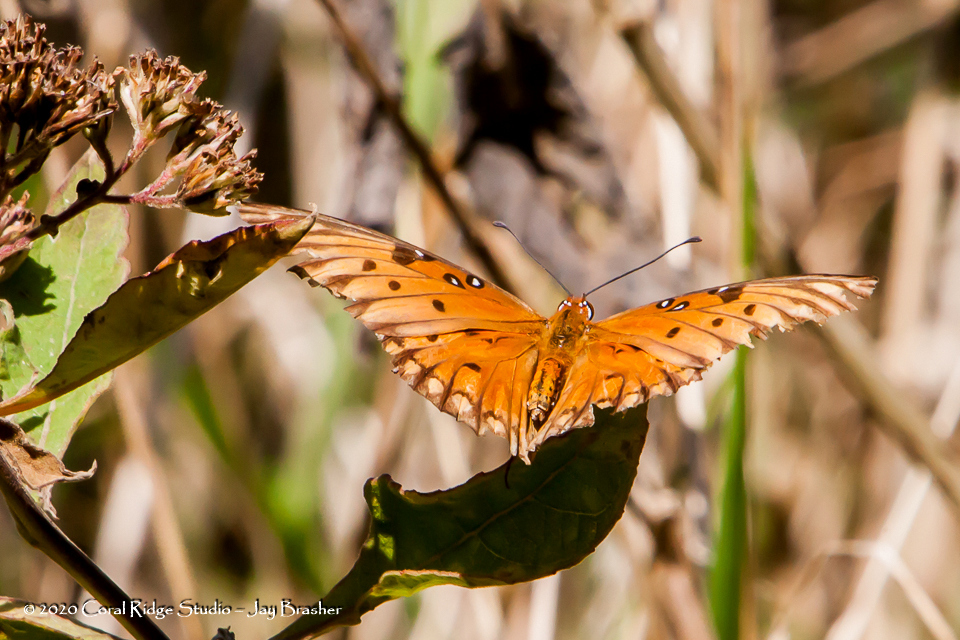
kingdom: Animalia
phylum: Arthropoda
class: Insecta
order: Lepidoptera
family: Nymphalidae
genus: Dione
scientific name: Dione vanillae
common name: Gulf fritillary
